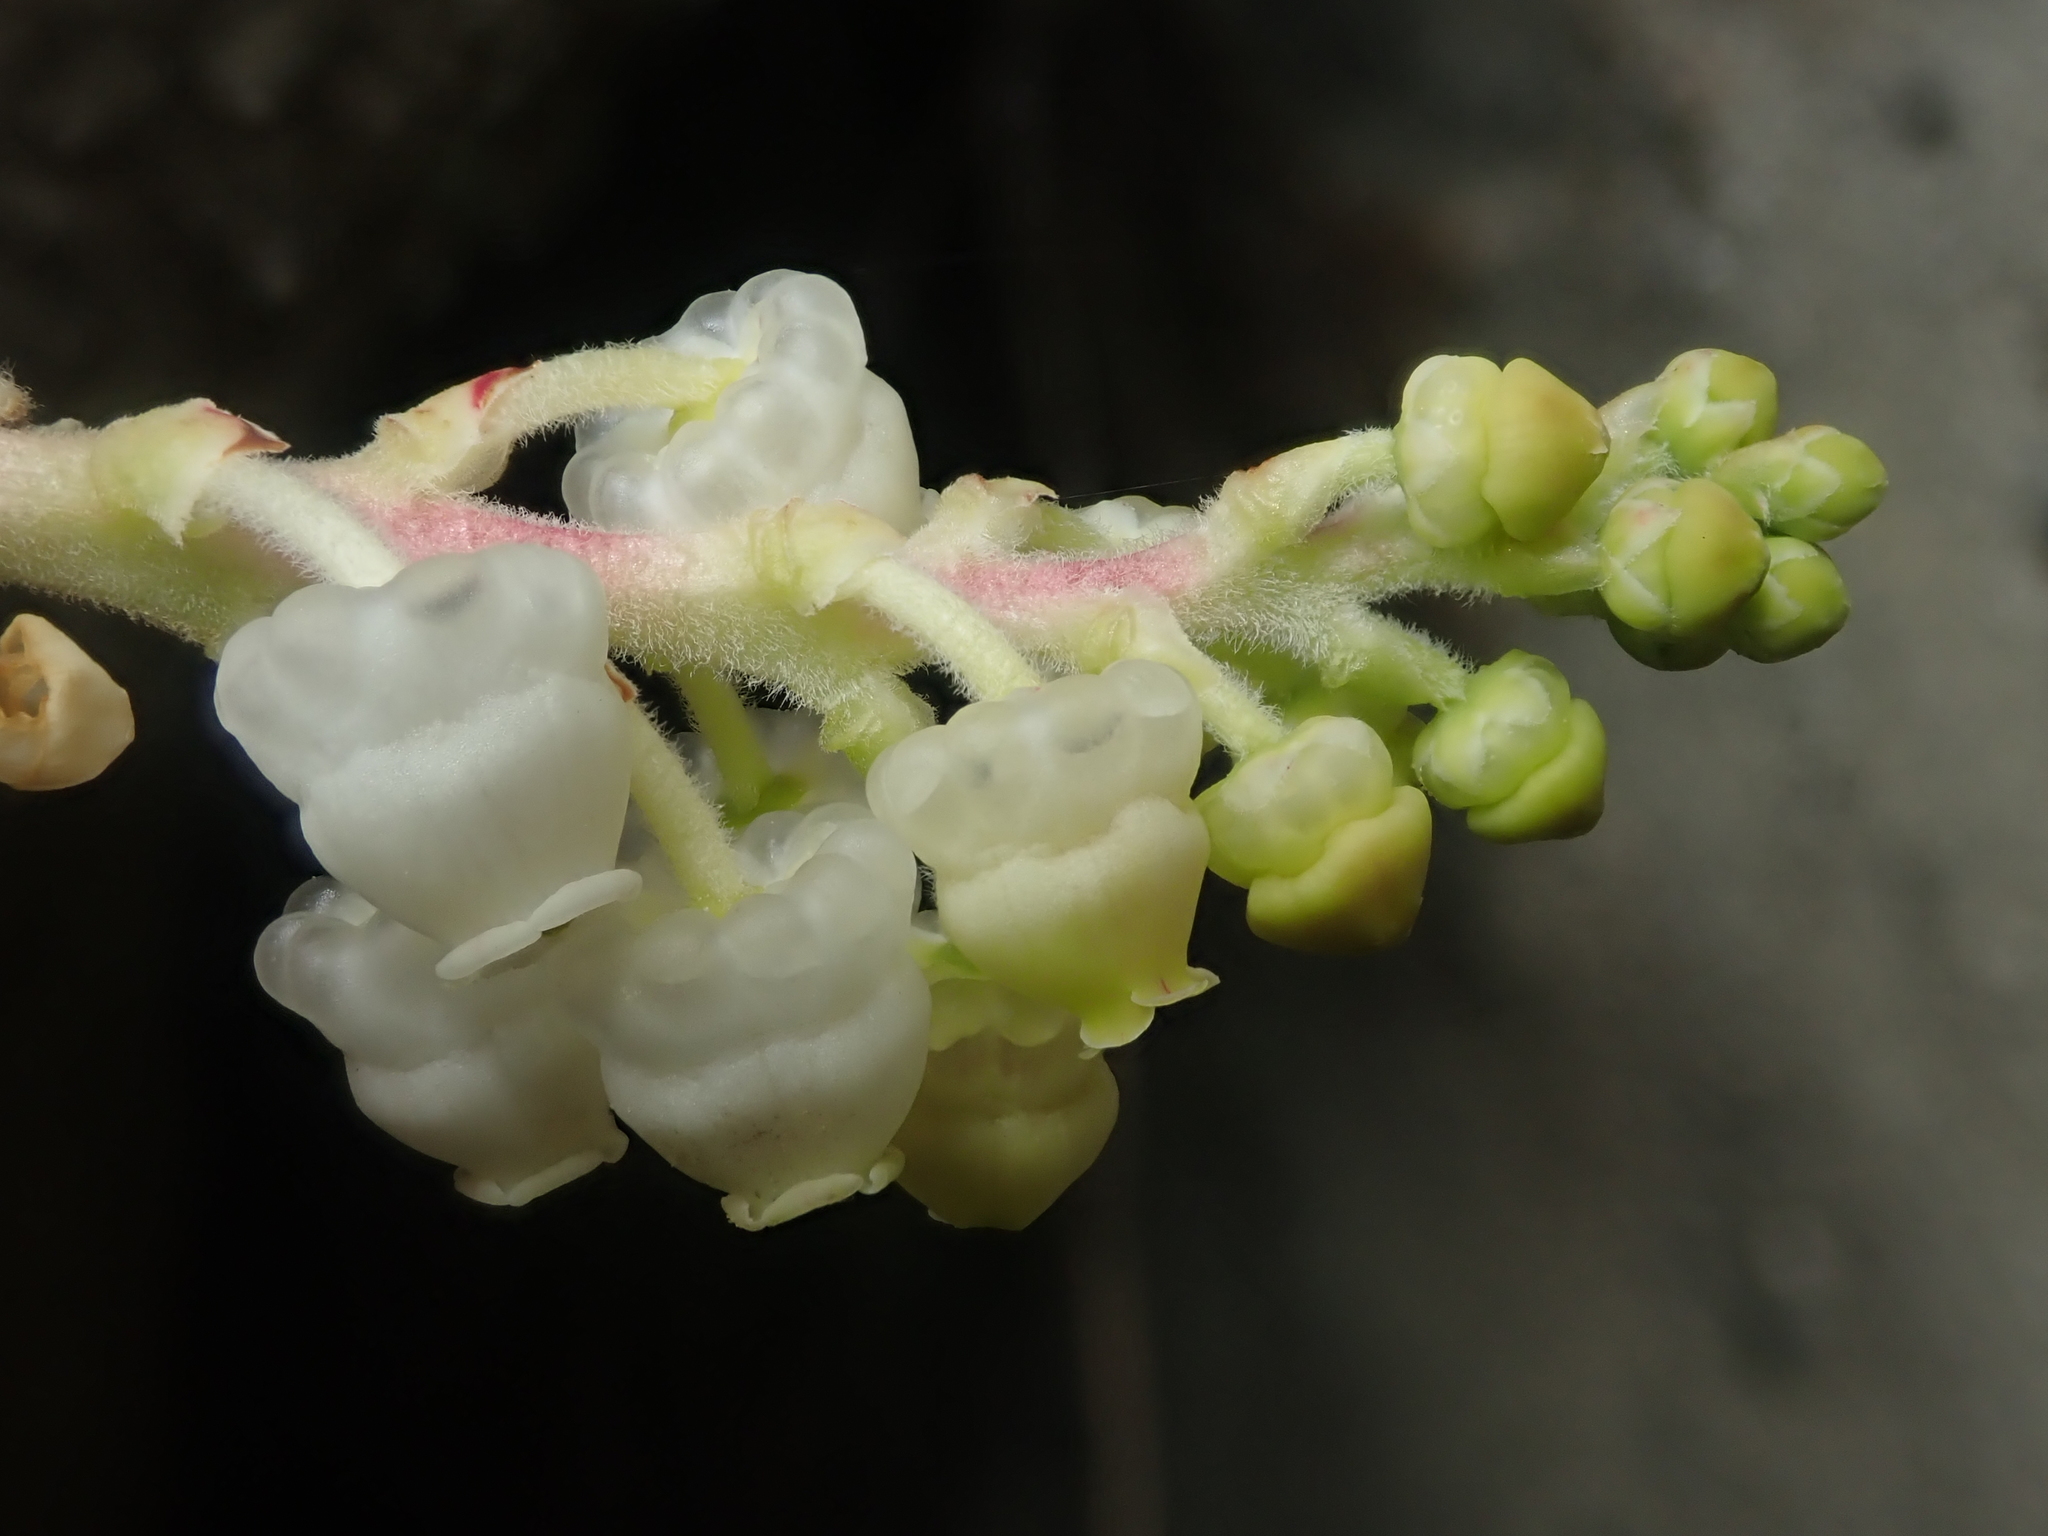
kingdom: Plantae
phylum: Tracheophyta
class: Magnoliopsida
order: Ericales
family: Ericaceae
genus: Arbutus
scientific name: Arbutus menziesii
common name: Pacific madrone
